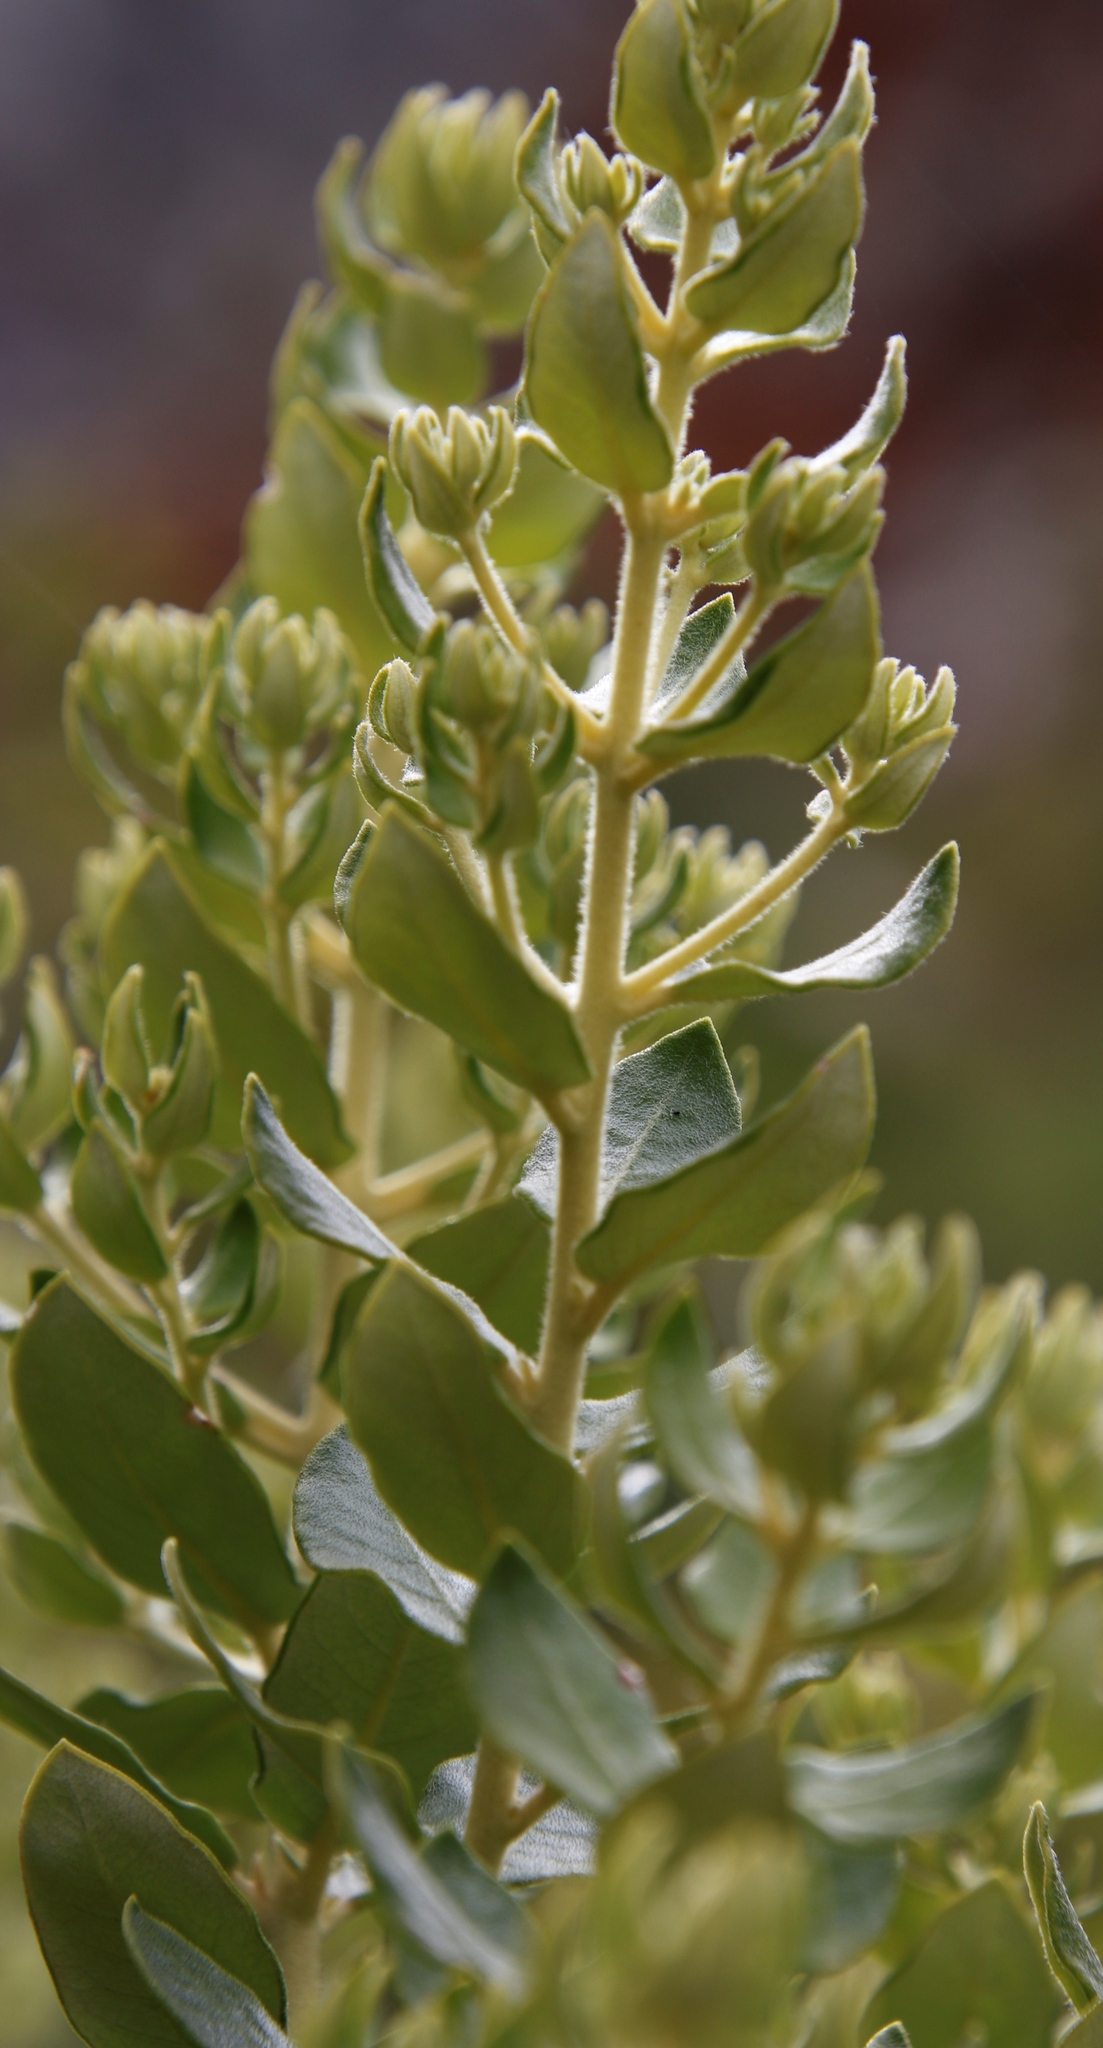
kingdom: Plantae
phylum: Tracheophyta
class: Magnoliopsida
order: Rosales
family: Rhamnaceae
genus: Phylica
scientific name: Phylica buxifolia
